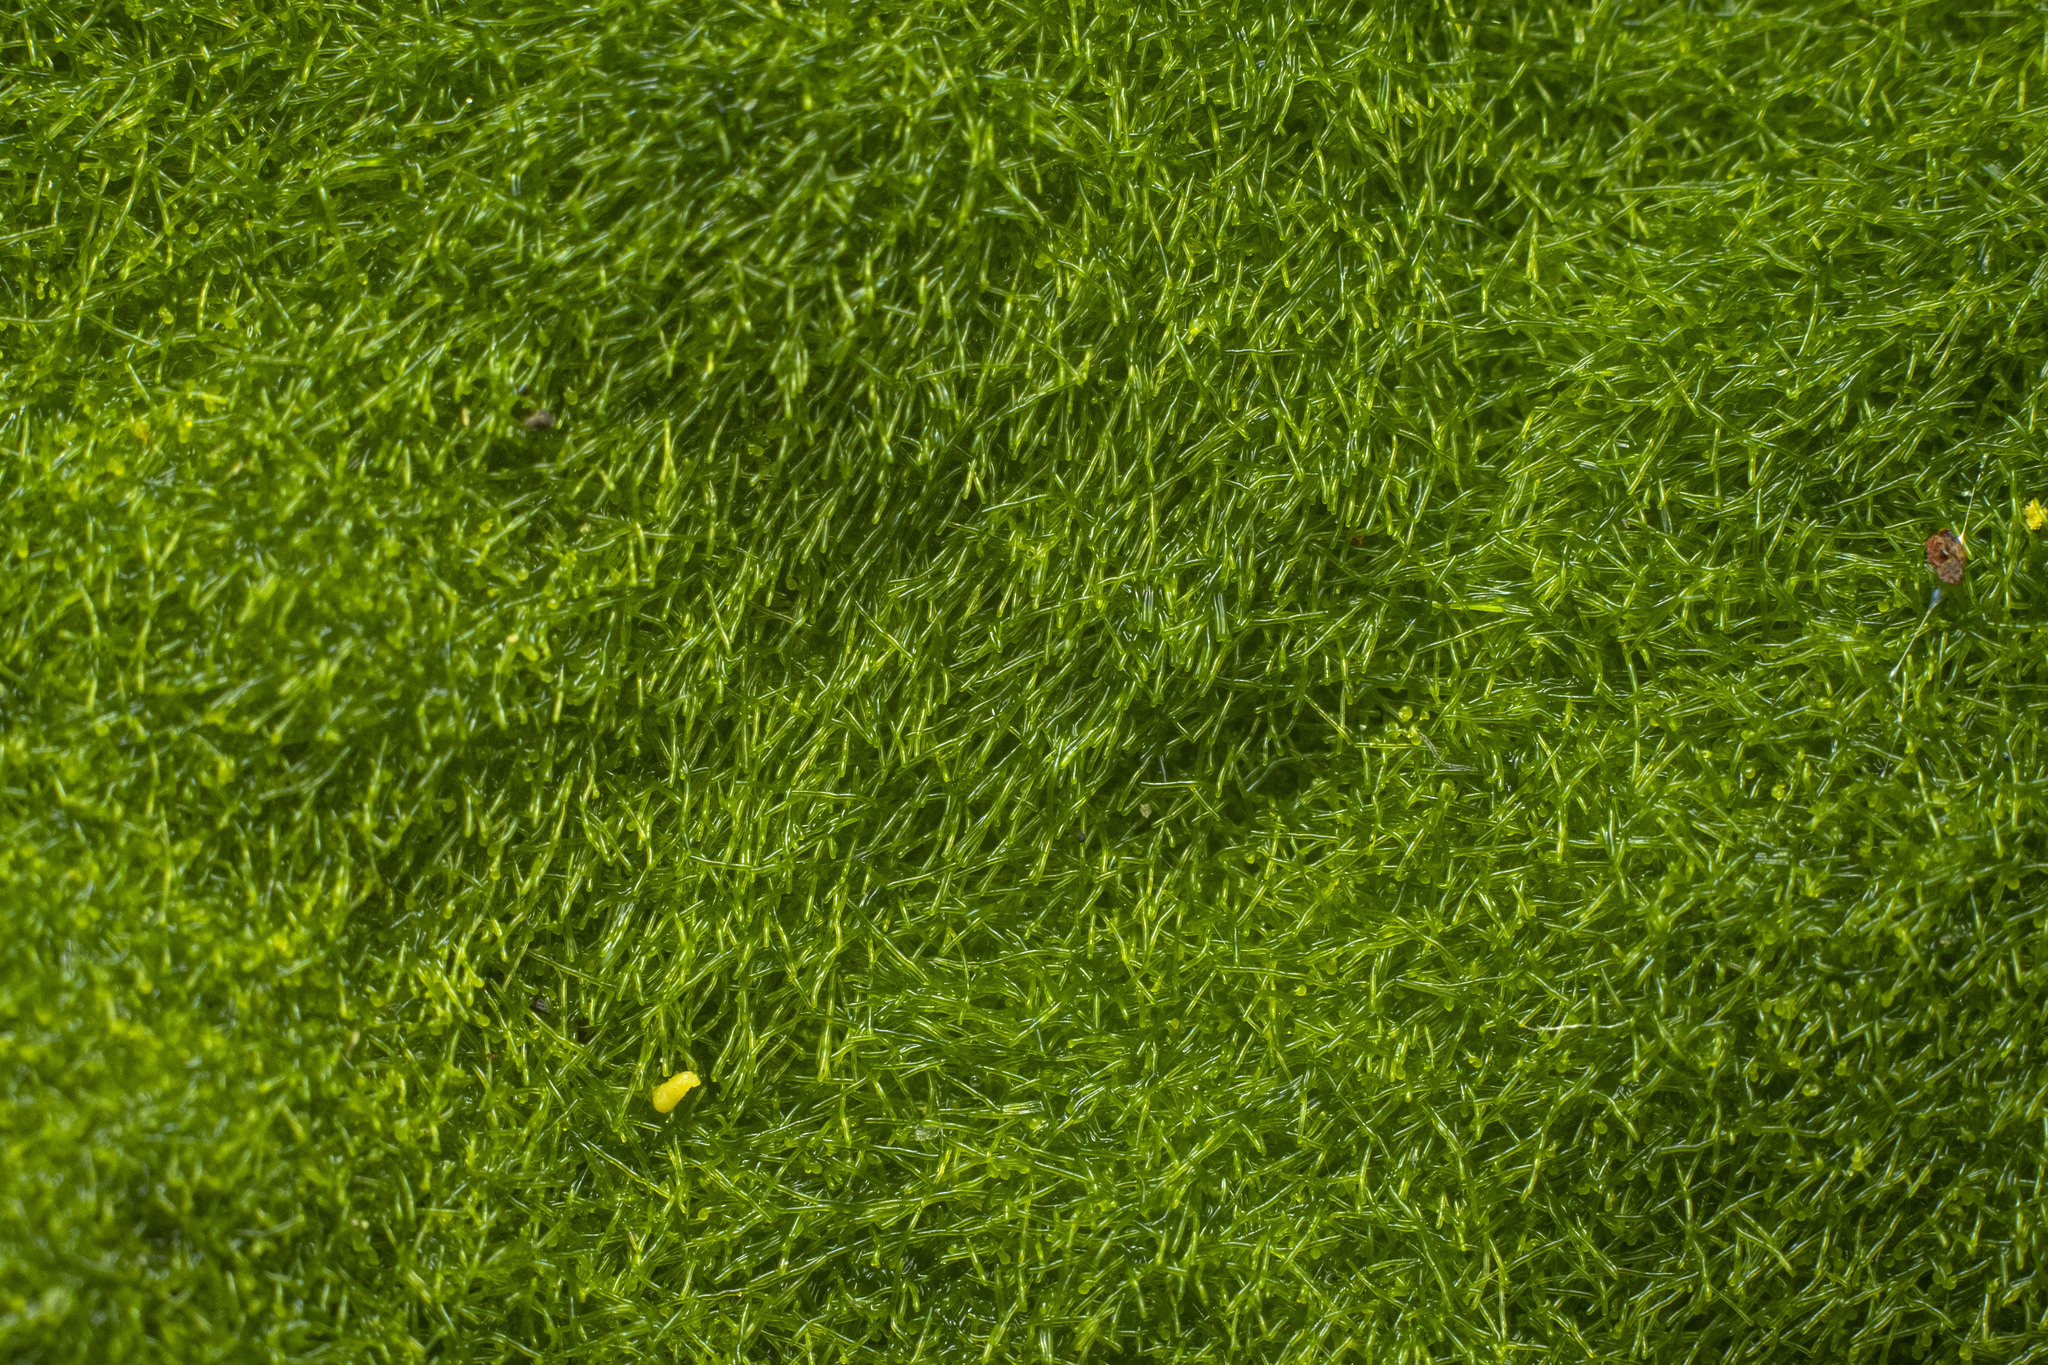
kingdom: Chromista
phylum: Ochrophyta
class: Xanthophyceae
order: Vaucheriales
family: Vaucheriaceae
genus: Vaucheria
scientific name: Vaucheria
